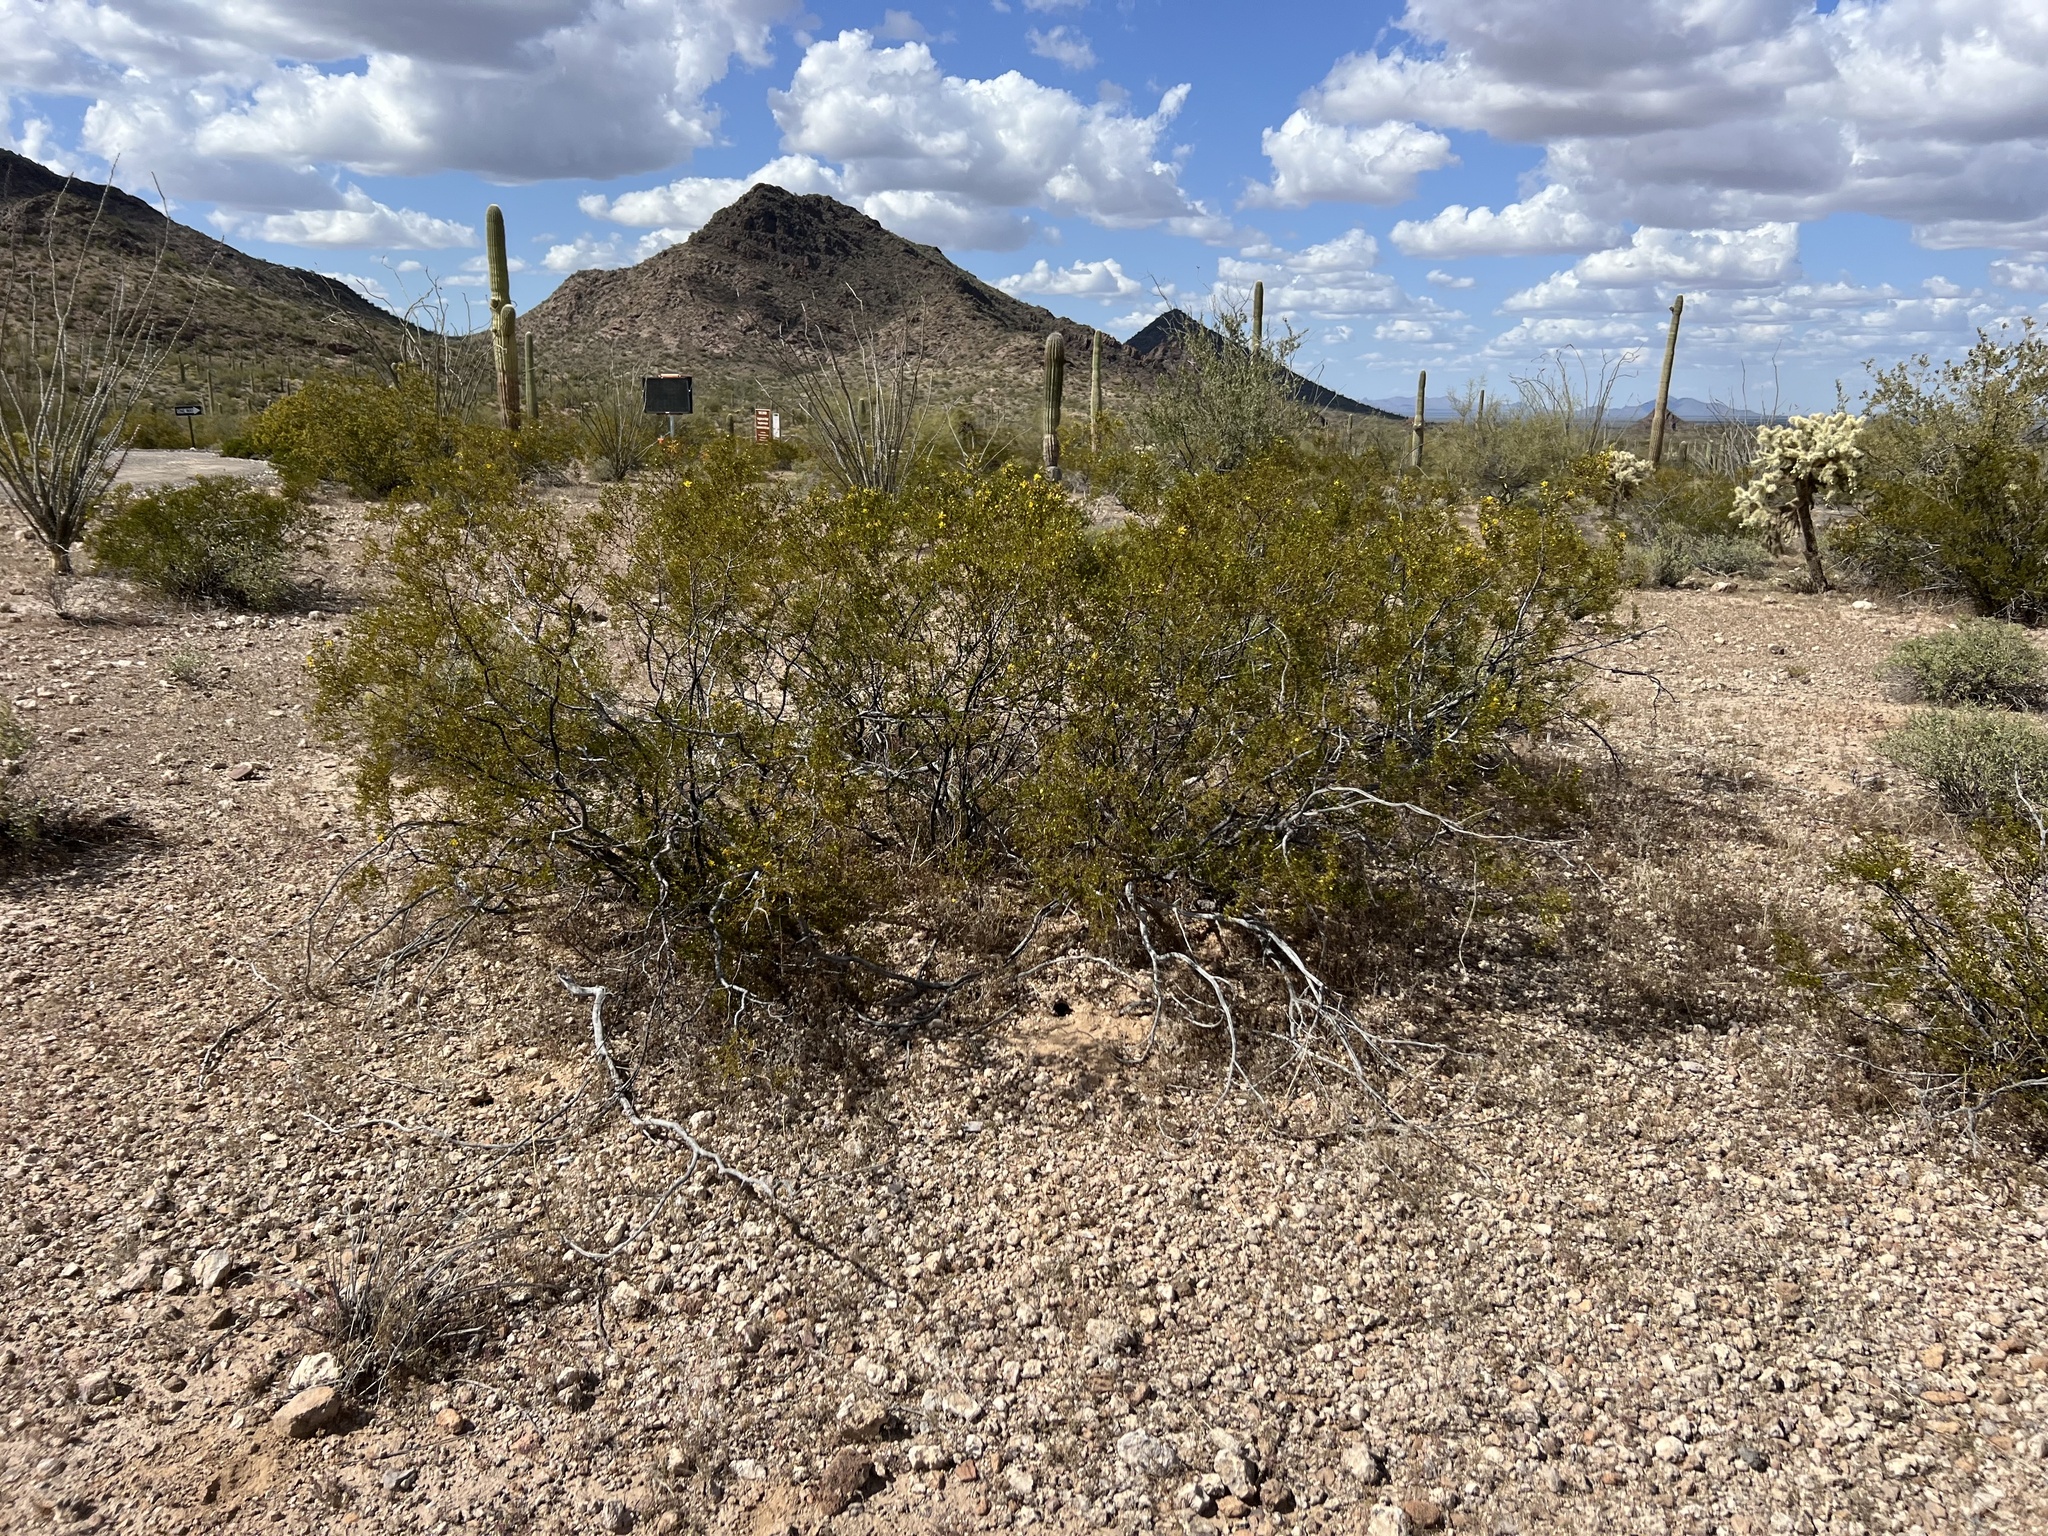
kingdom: Plantae
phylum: Tracheophyta
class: Magnoliopsida
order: Zygophyllales
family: Zygophyllaceae
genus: Larrea
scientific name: Larrea tridentata
